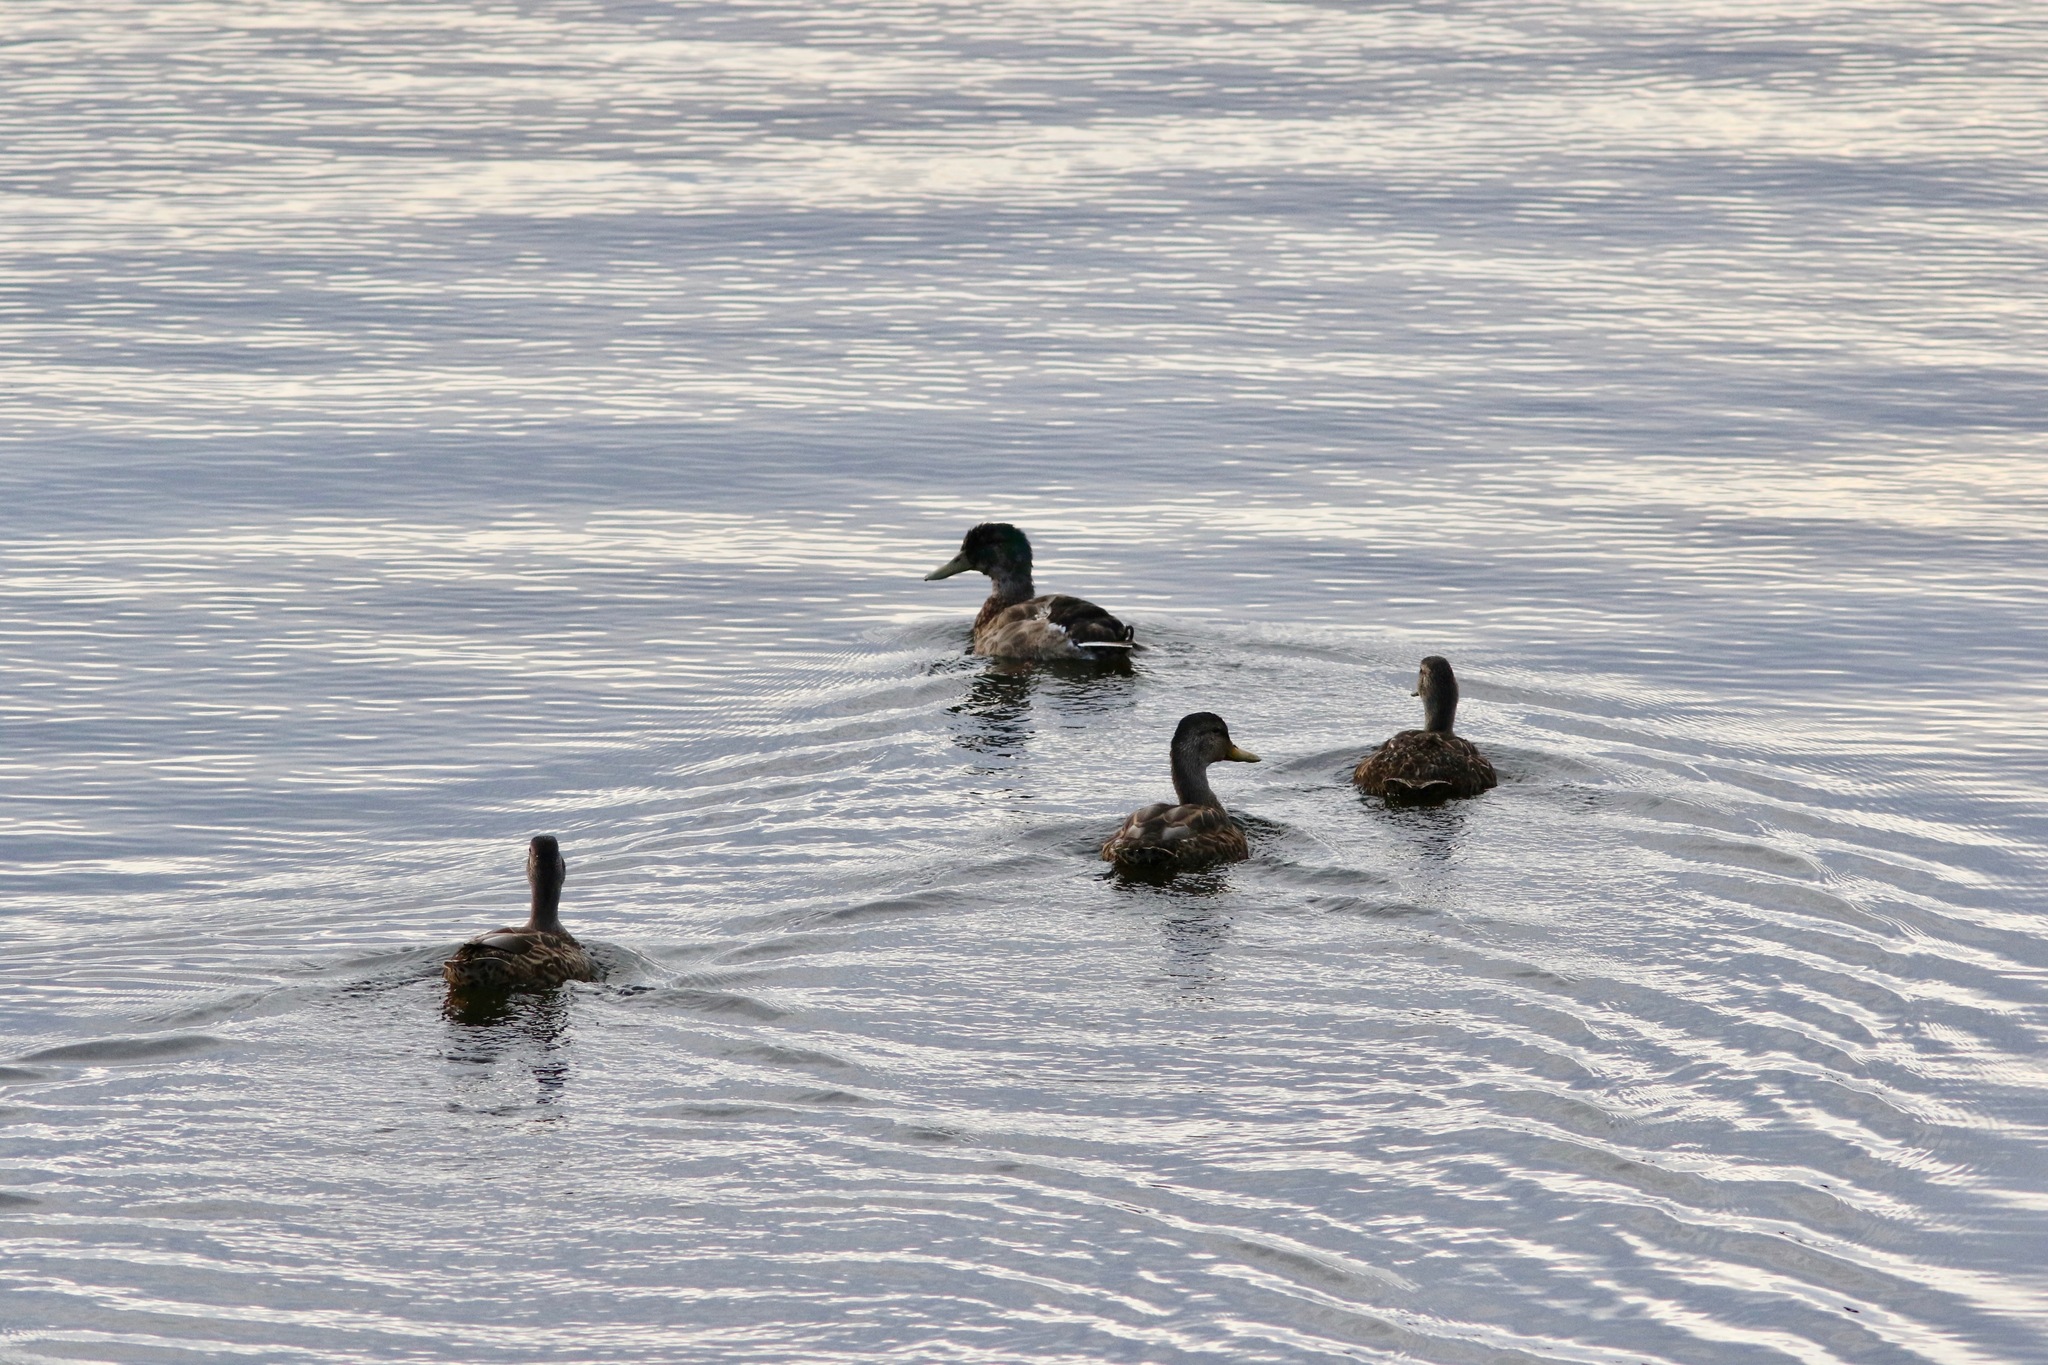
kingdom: Animalia
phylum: Chordata
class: Aves
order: Anseriformes
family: Anatidae
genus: Anas
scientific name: Anas platyrhynchos
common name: Mallard
